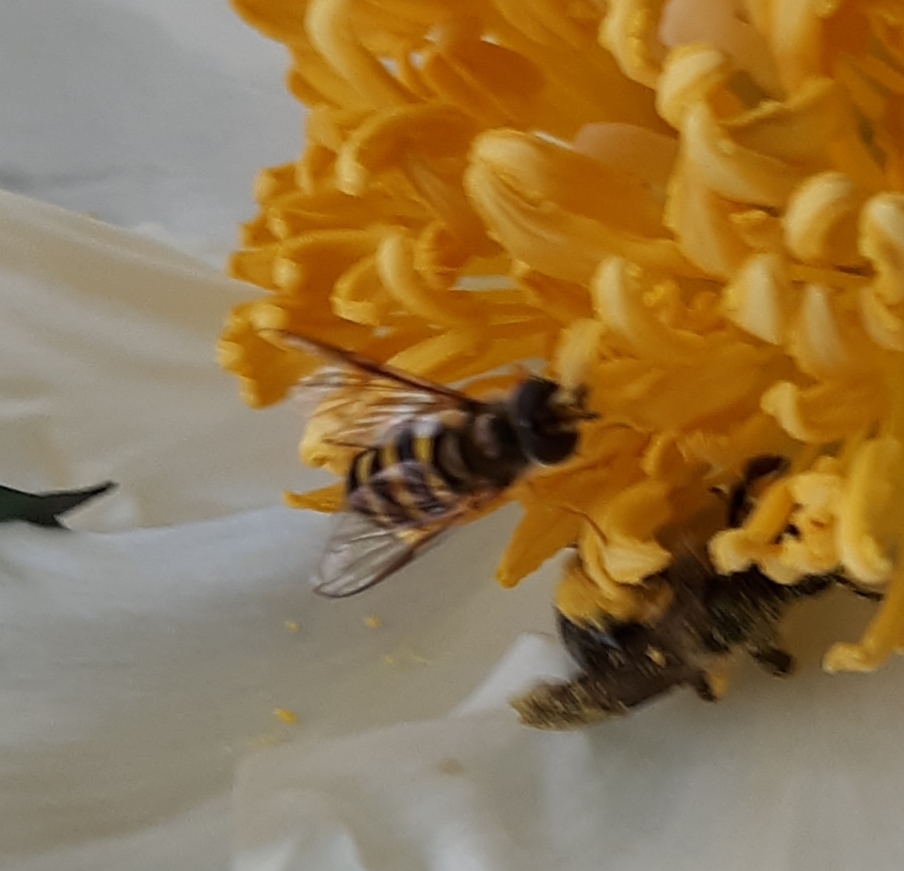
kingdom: Animalia
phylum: Arthropoda
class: Insecta
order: Diptera
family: Syrphidae
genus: Eupeodes
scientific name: Eupeodes
